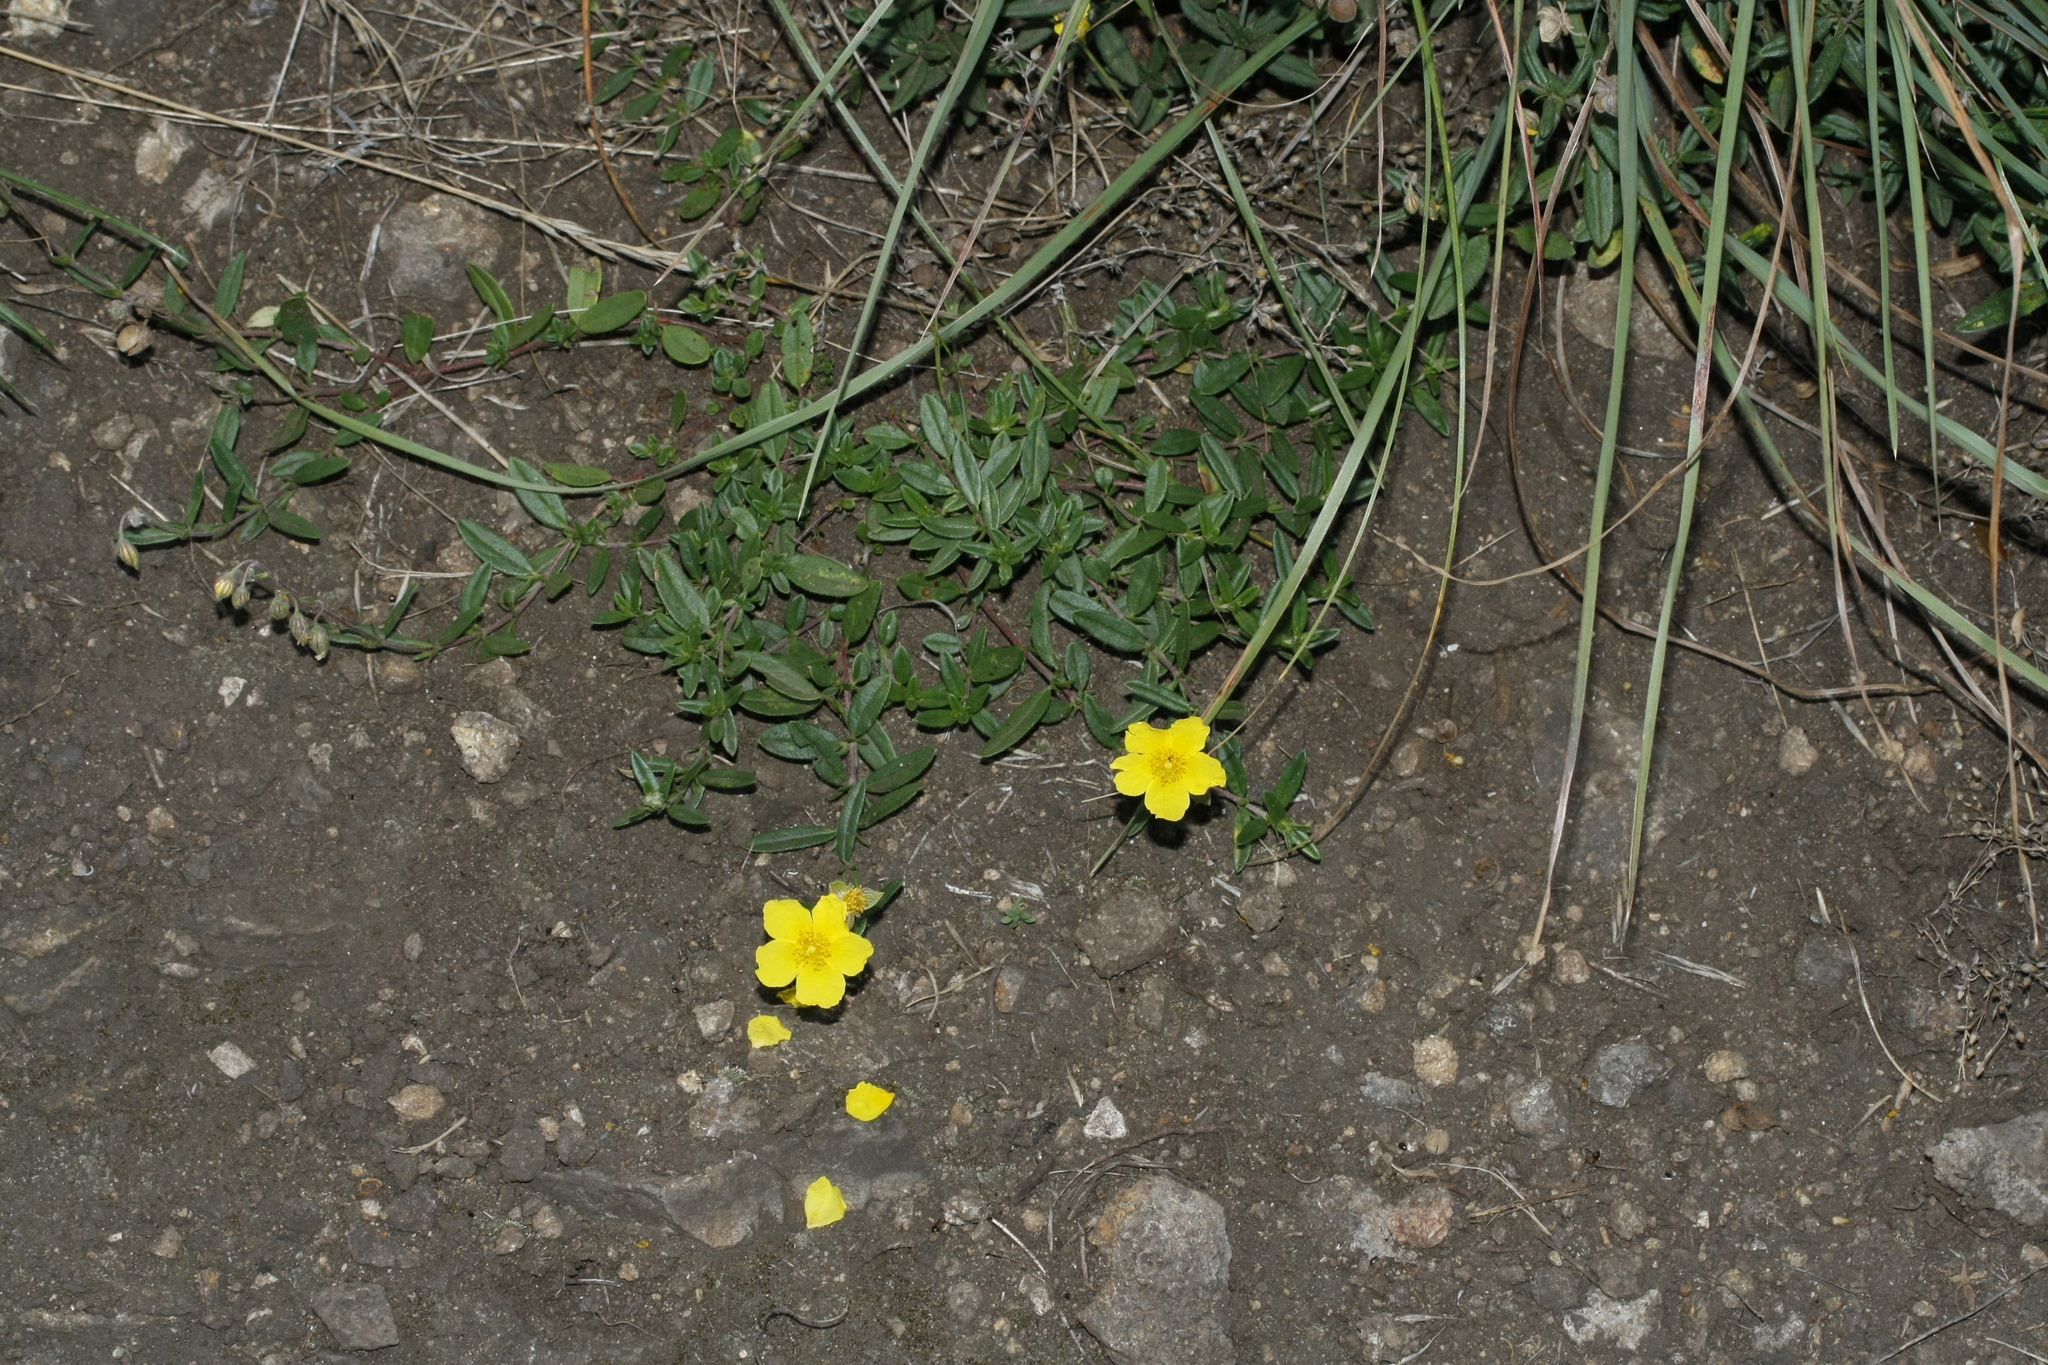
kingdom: Plantae
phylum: Tracheophyta
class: Magnoliopsida
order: Malvales
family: Cistaceae
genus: Helianthemum
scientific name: Helianthemum nummularium
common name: Common rock-rose
